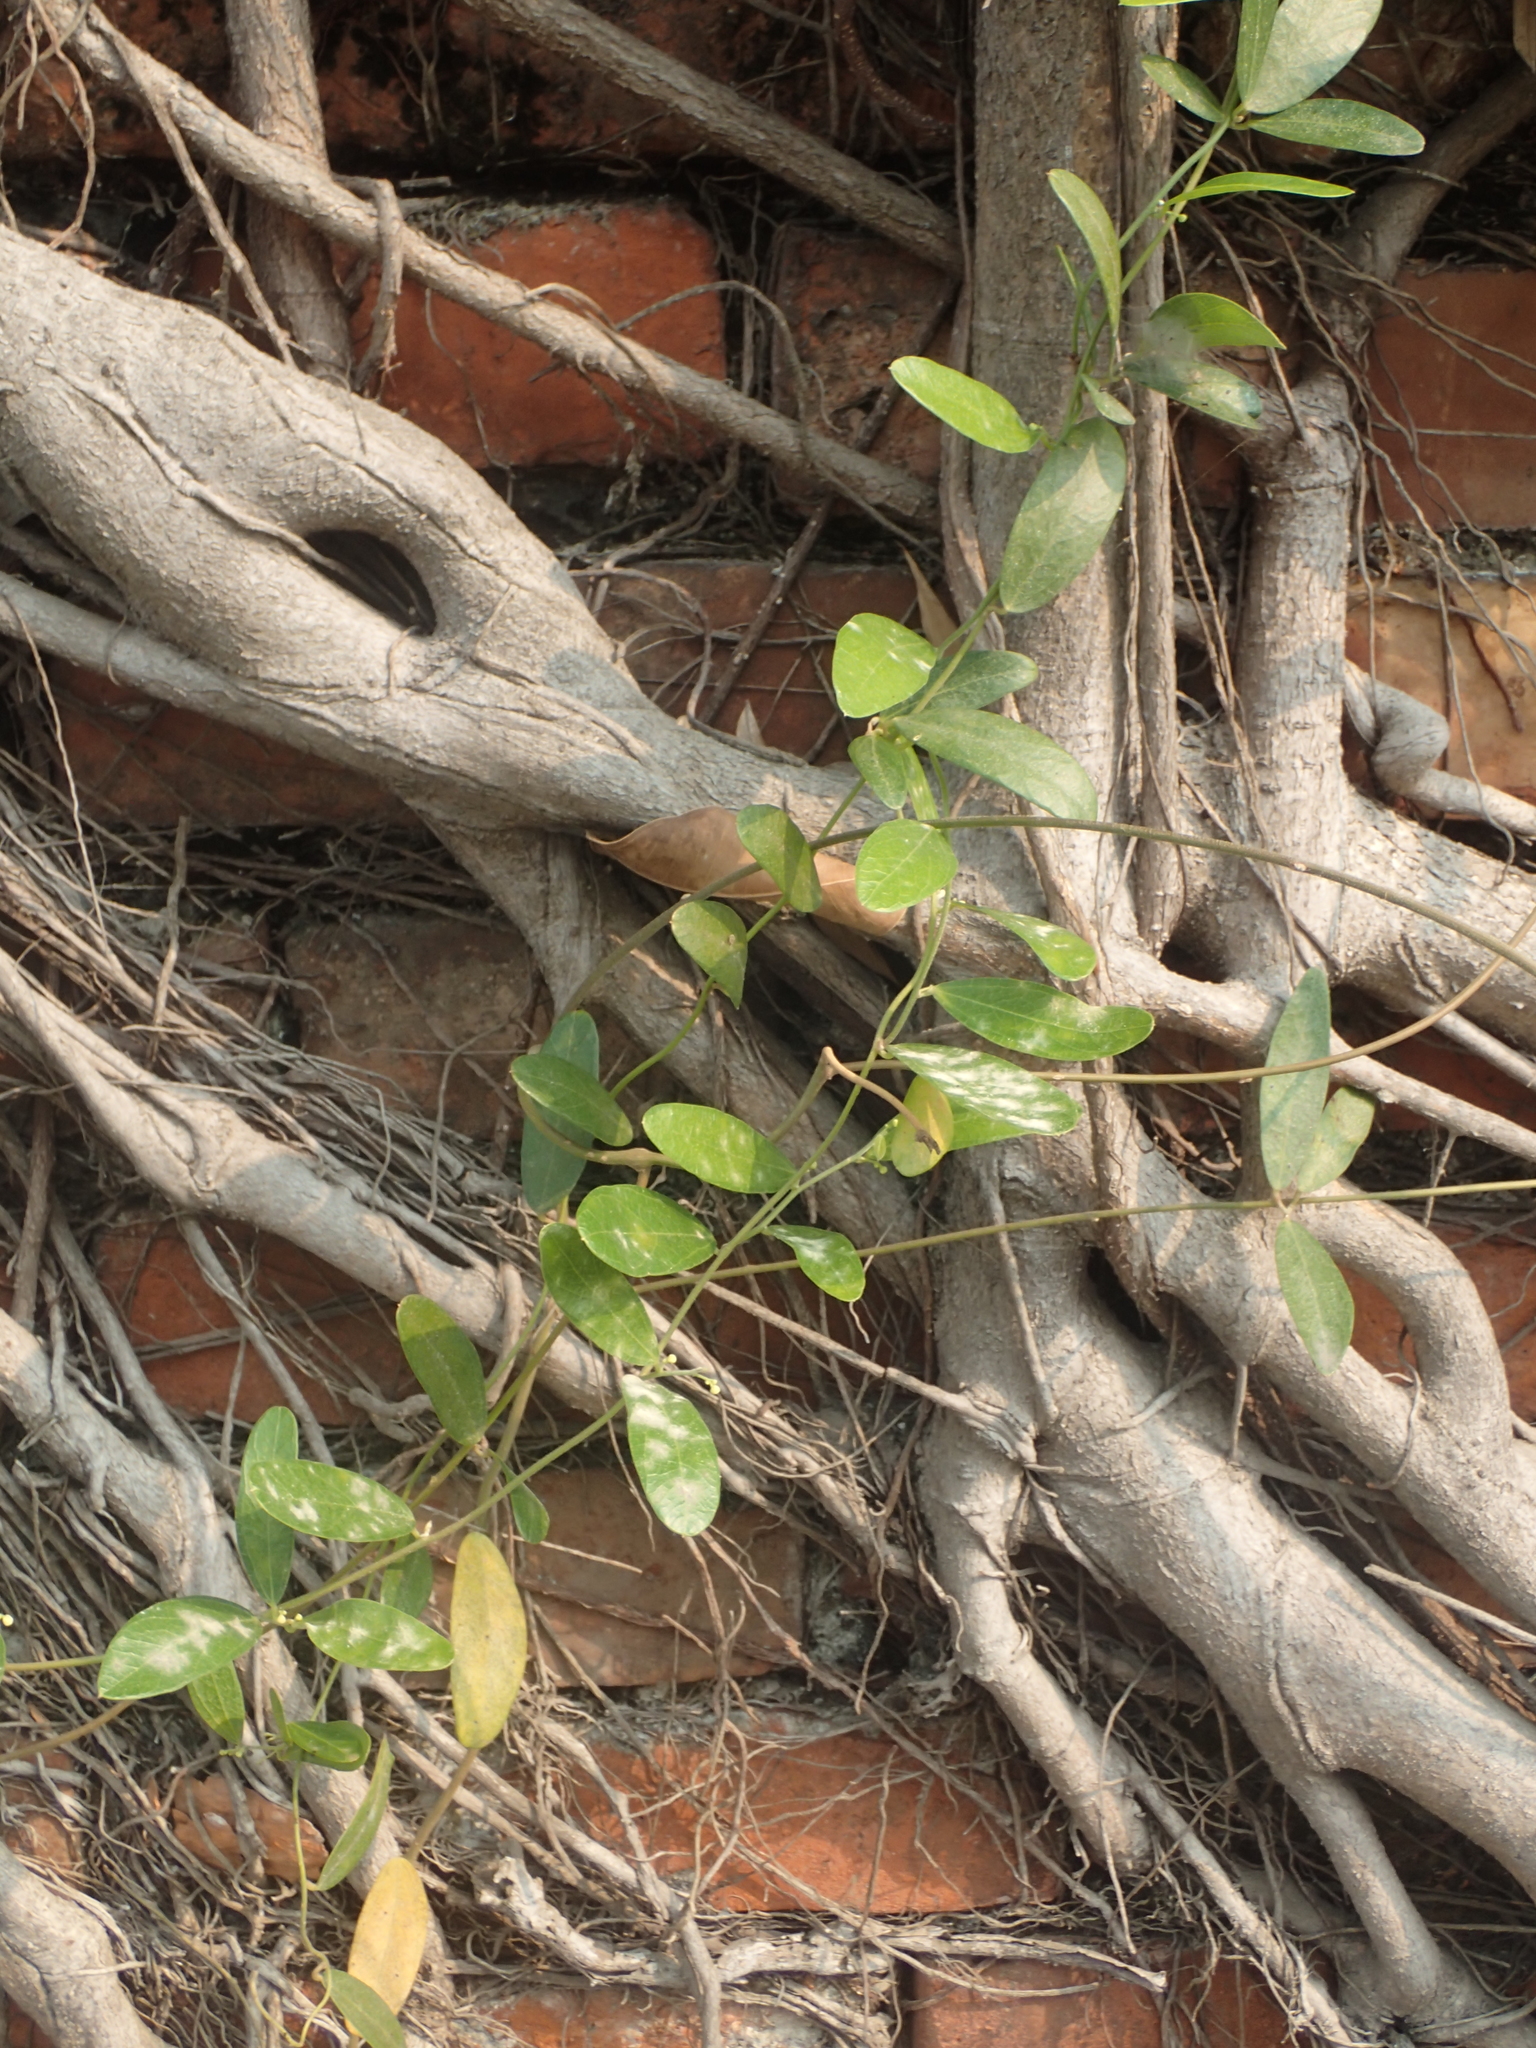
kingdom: Plantae
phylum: Tracheophyta
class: Magnoliopsida
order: Ranunculales
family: Menispermaceae
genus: Cocculus
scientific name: Cocculus orbiculatus
